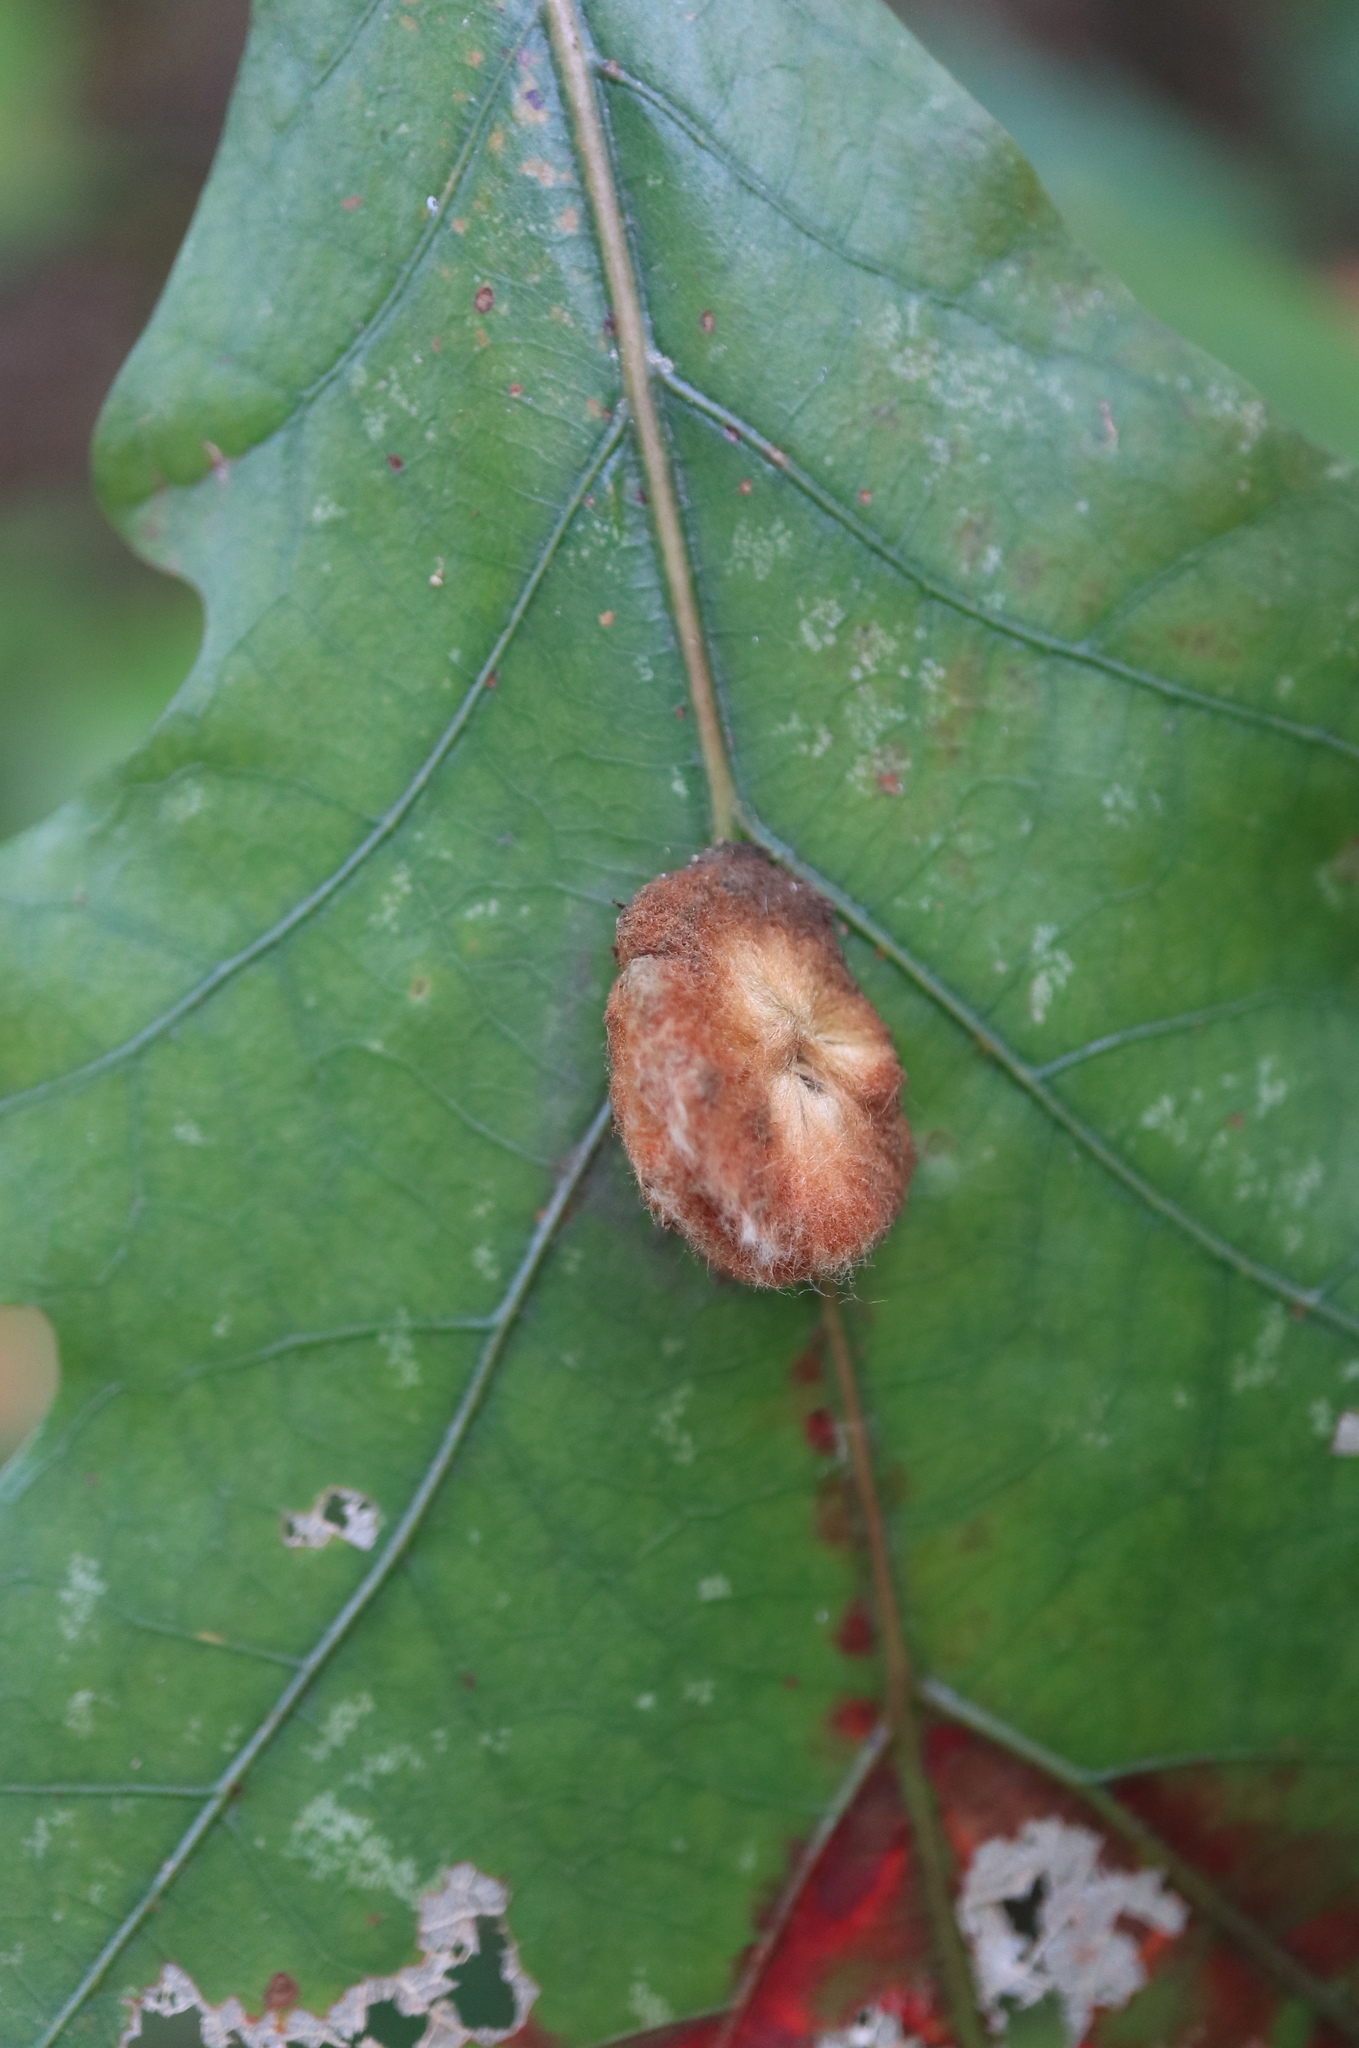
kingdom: Animalia
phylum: Arthropoda
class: Insecta
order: Hymenoptera
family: Cynipidae
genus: Andricus
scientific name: Andricus quercusflocci
